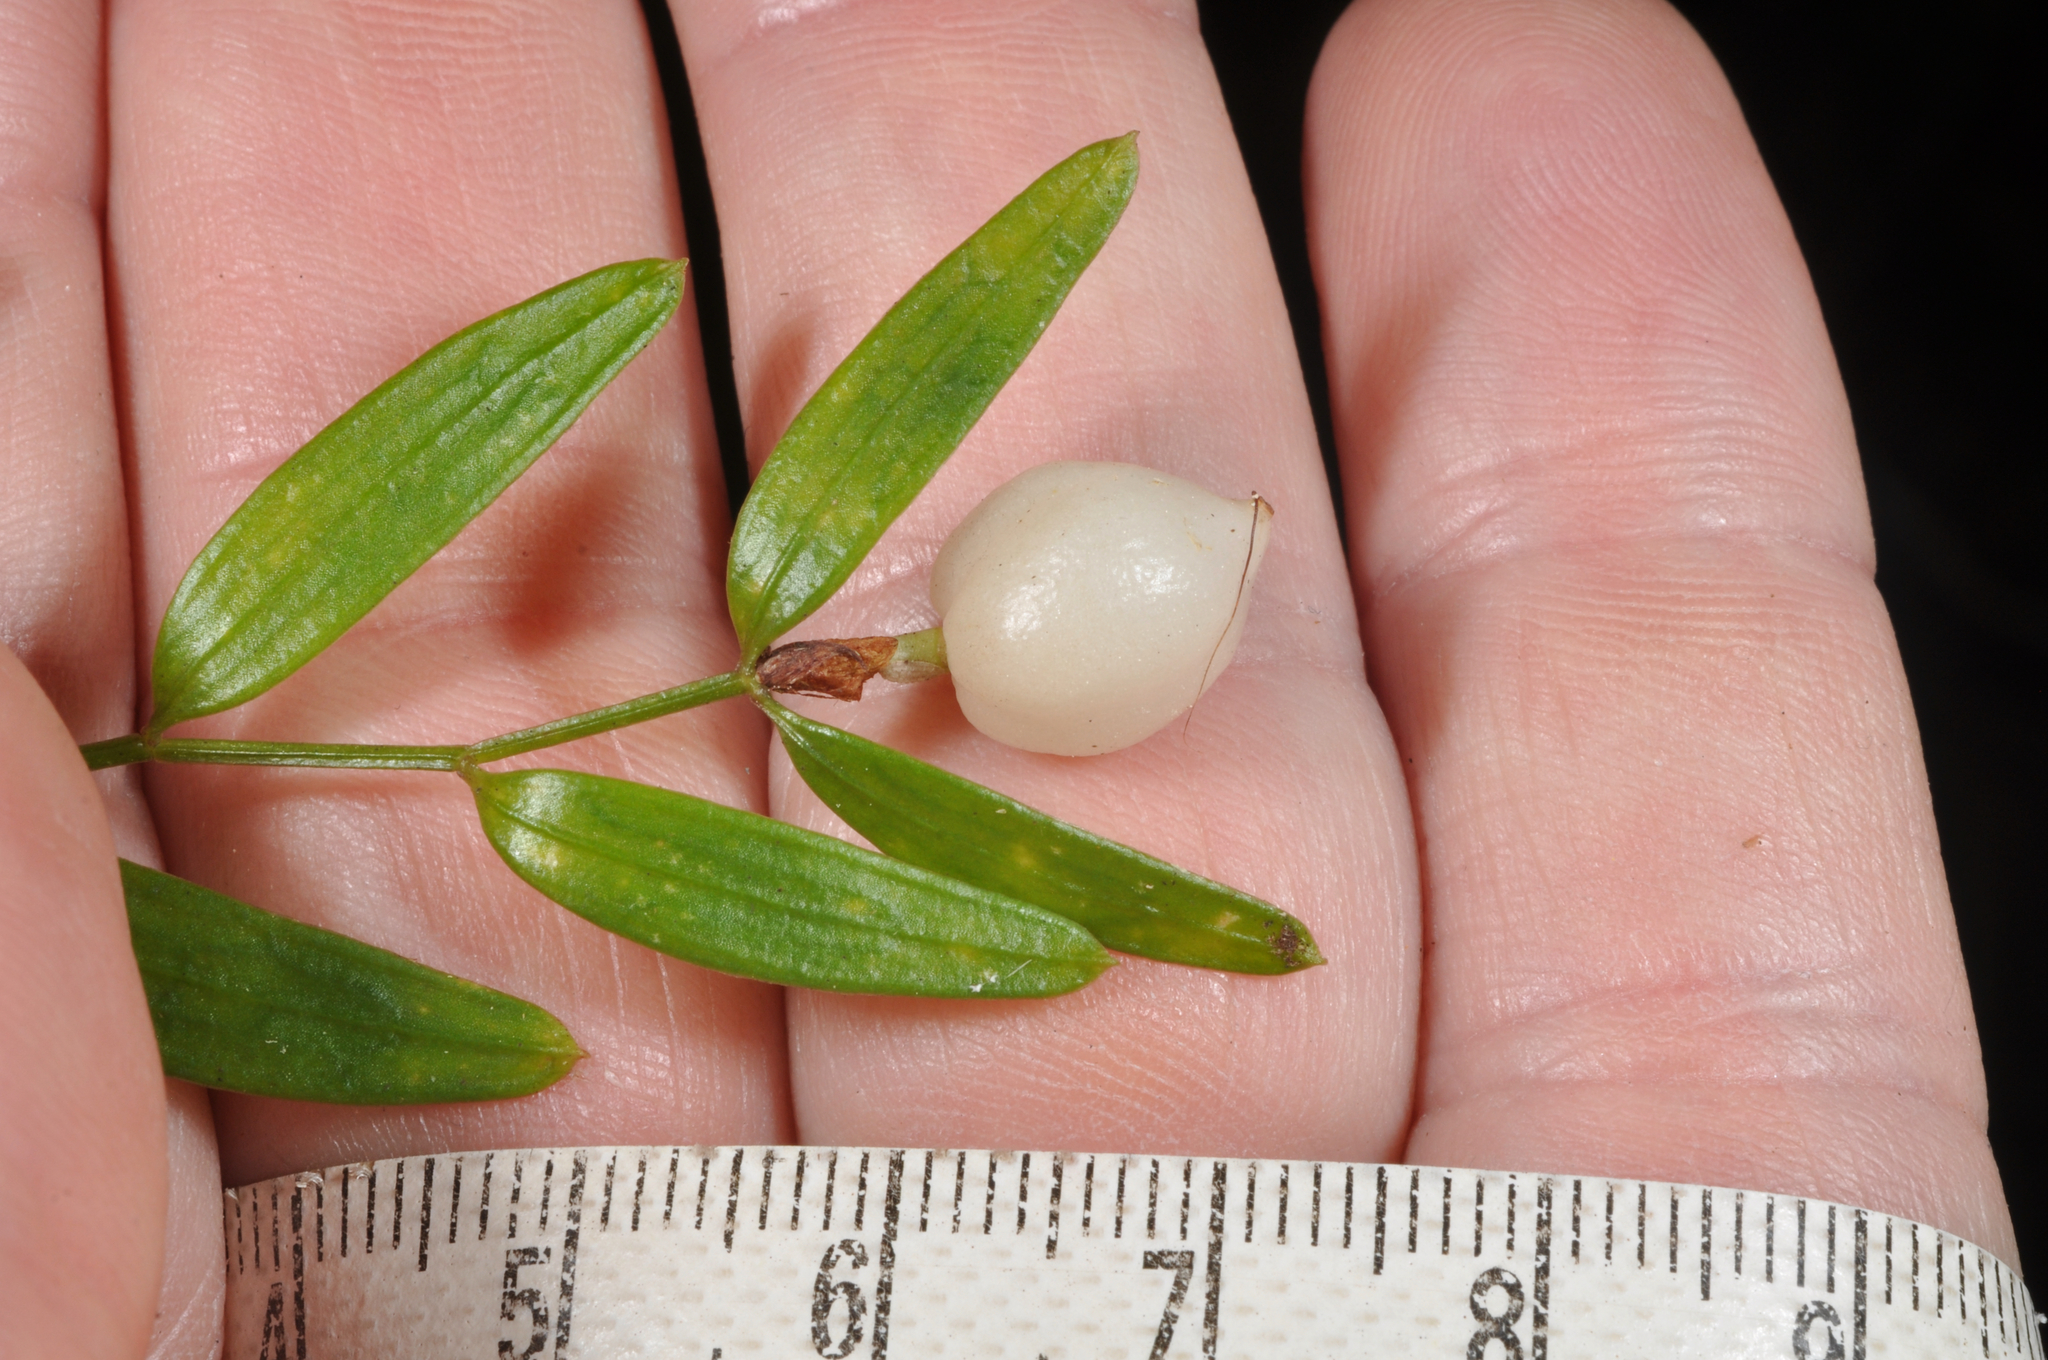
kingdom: Plantae
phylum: Tracheophyta
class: Liliopsida
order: Liliales
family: Alstroemeriaceae
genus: Luzuriaga
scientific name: Luzuriaga parviflora
